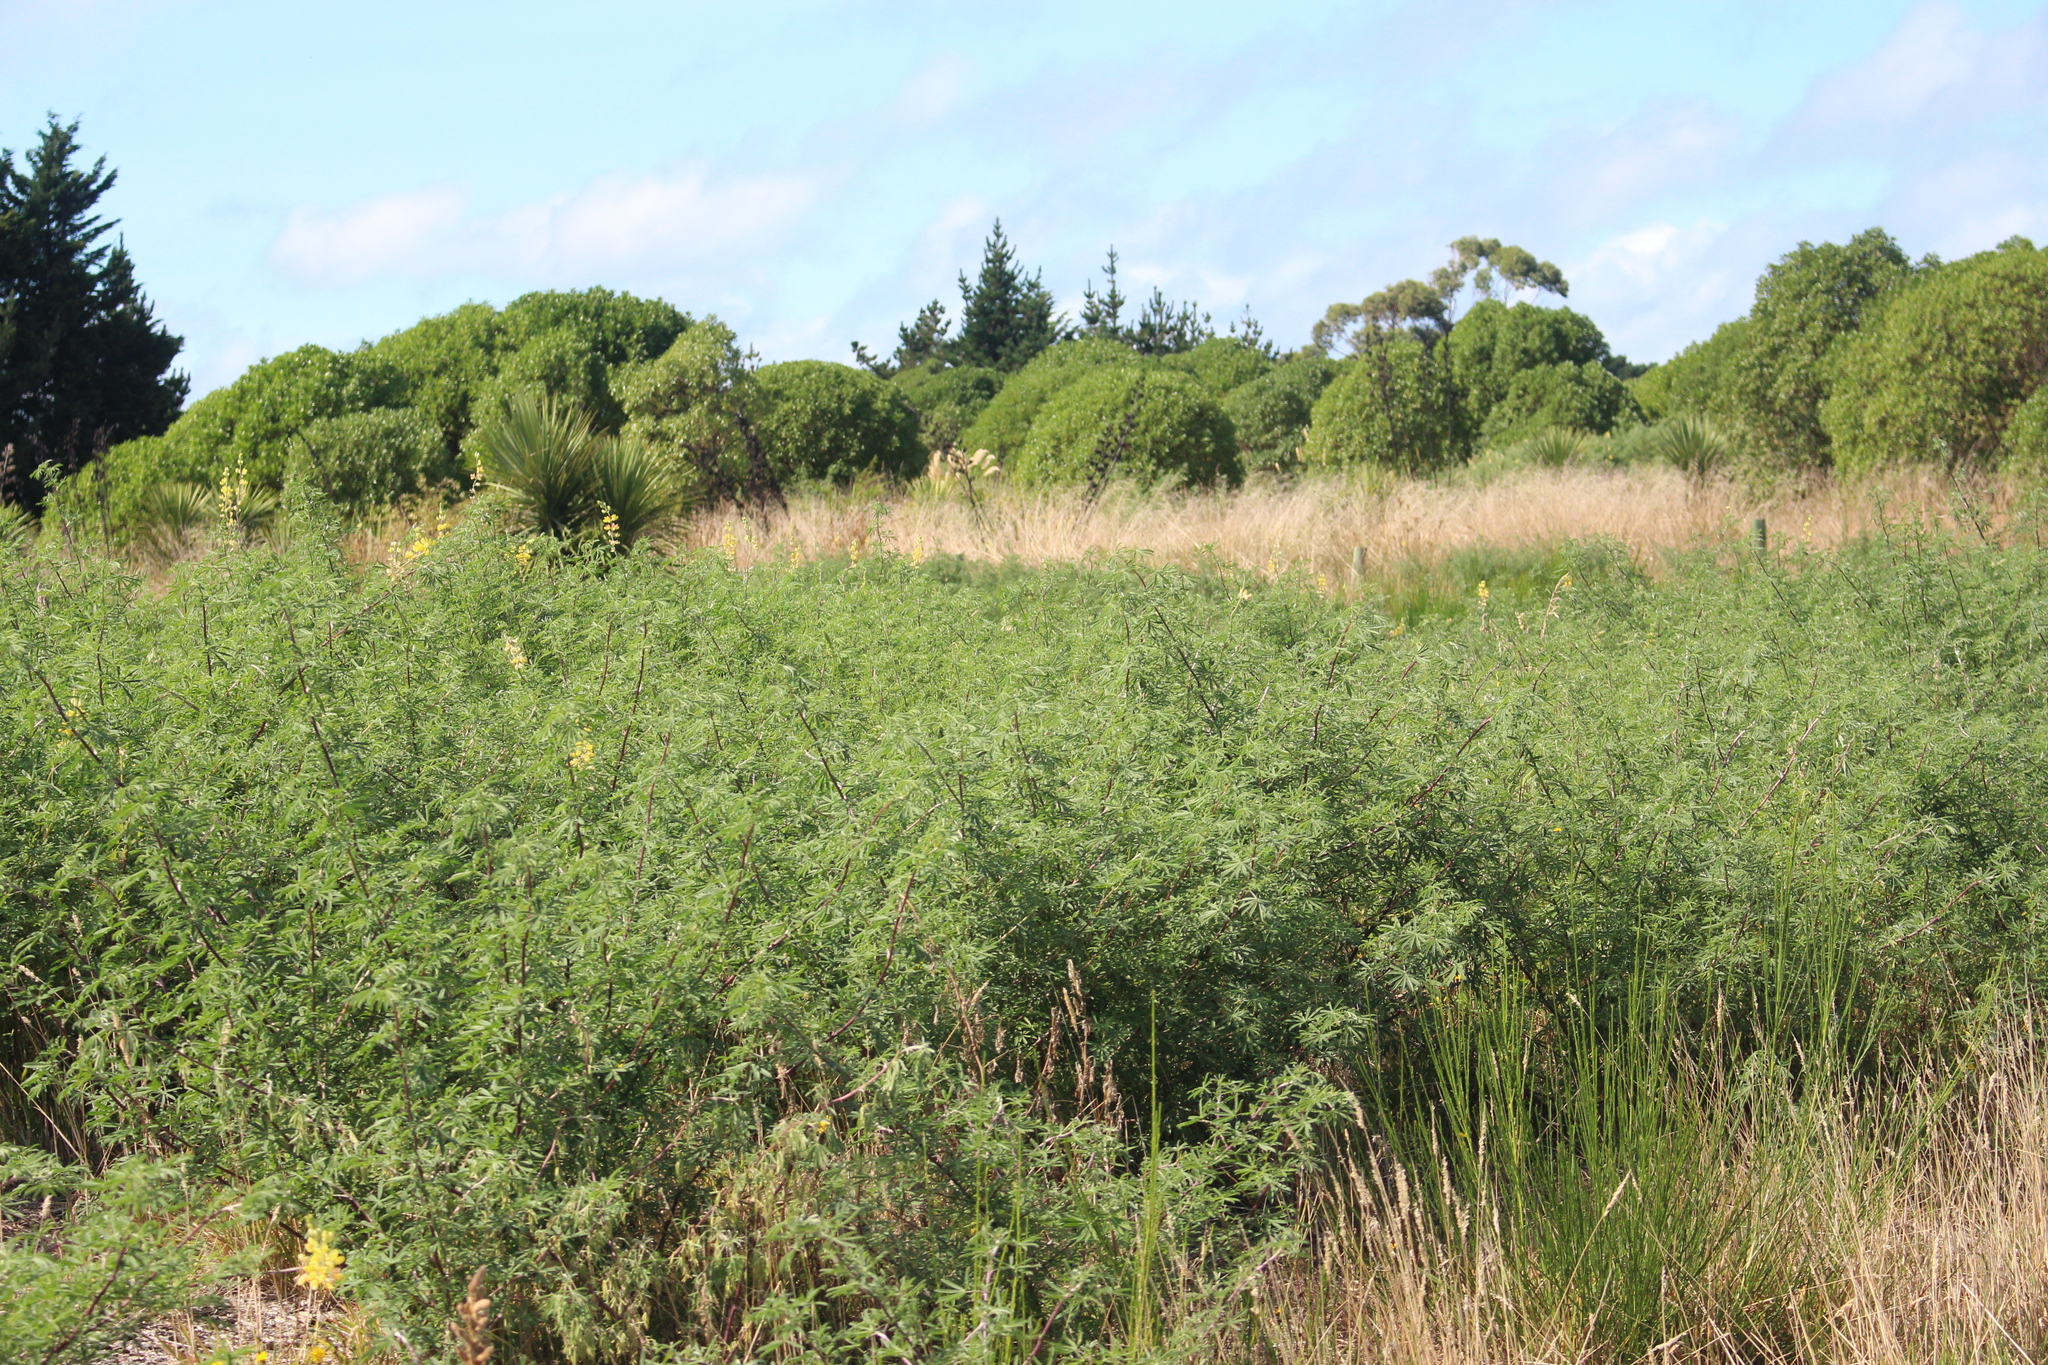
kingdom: Plantae
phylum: Tracheophyta
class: Magnoliopsida
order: Fabales
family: Fabaceae
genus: Lupinus
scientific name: Lupinus arboreus
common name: Yellow bush lupine
